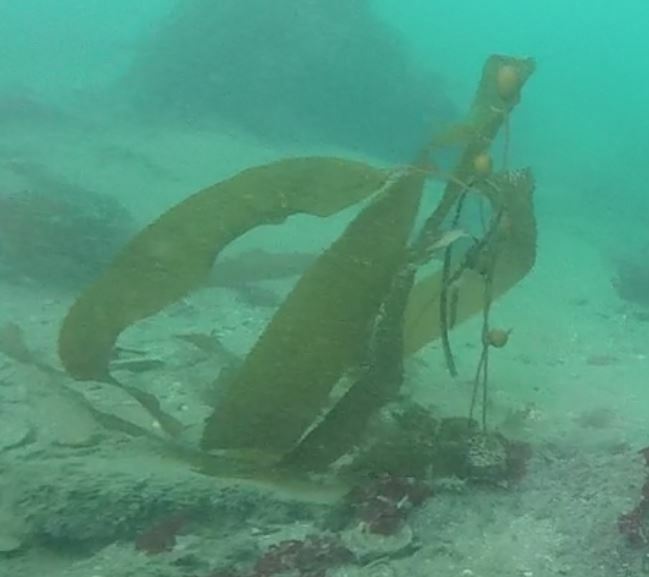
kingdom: Chromista
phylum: Ochrophyta
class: Phaeophyceae
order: Laminariales
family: Laminariaceae
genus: Macrocystis
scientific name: Macrocystis pyrifera
